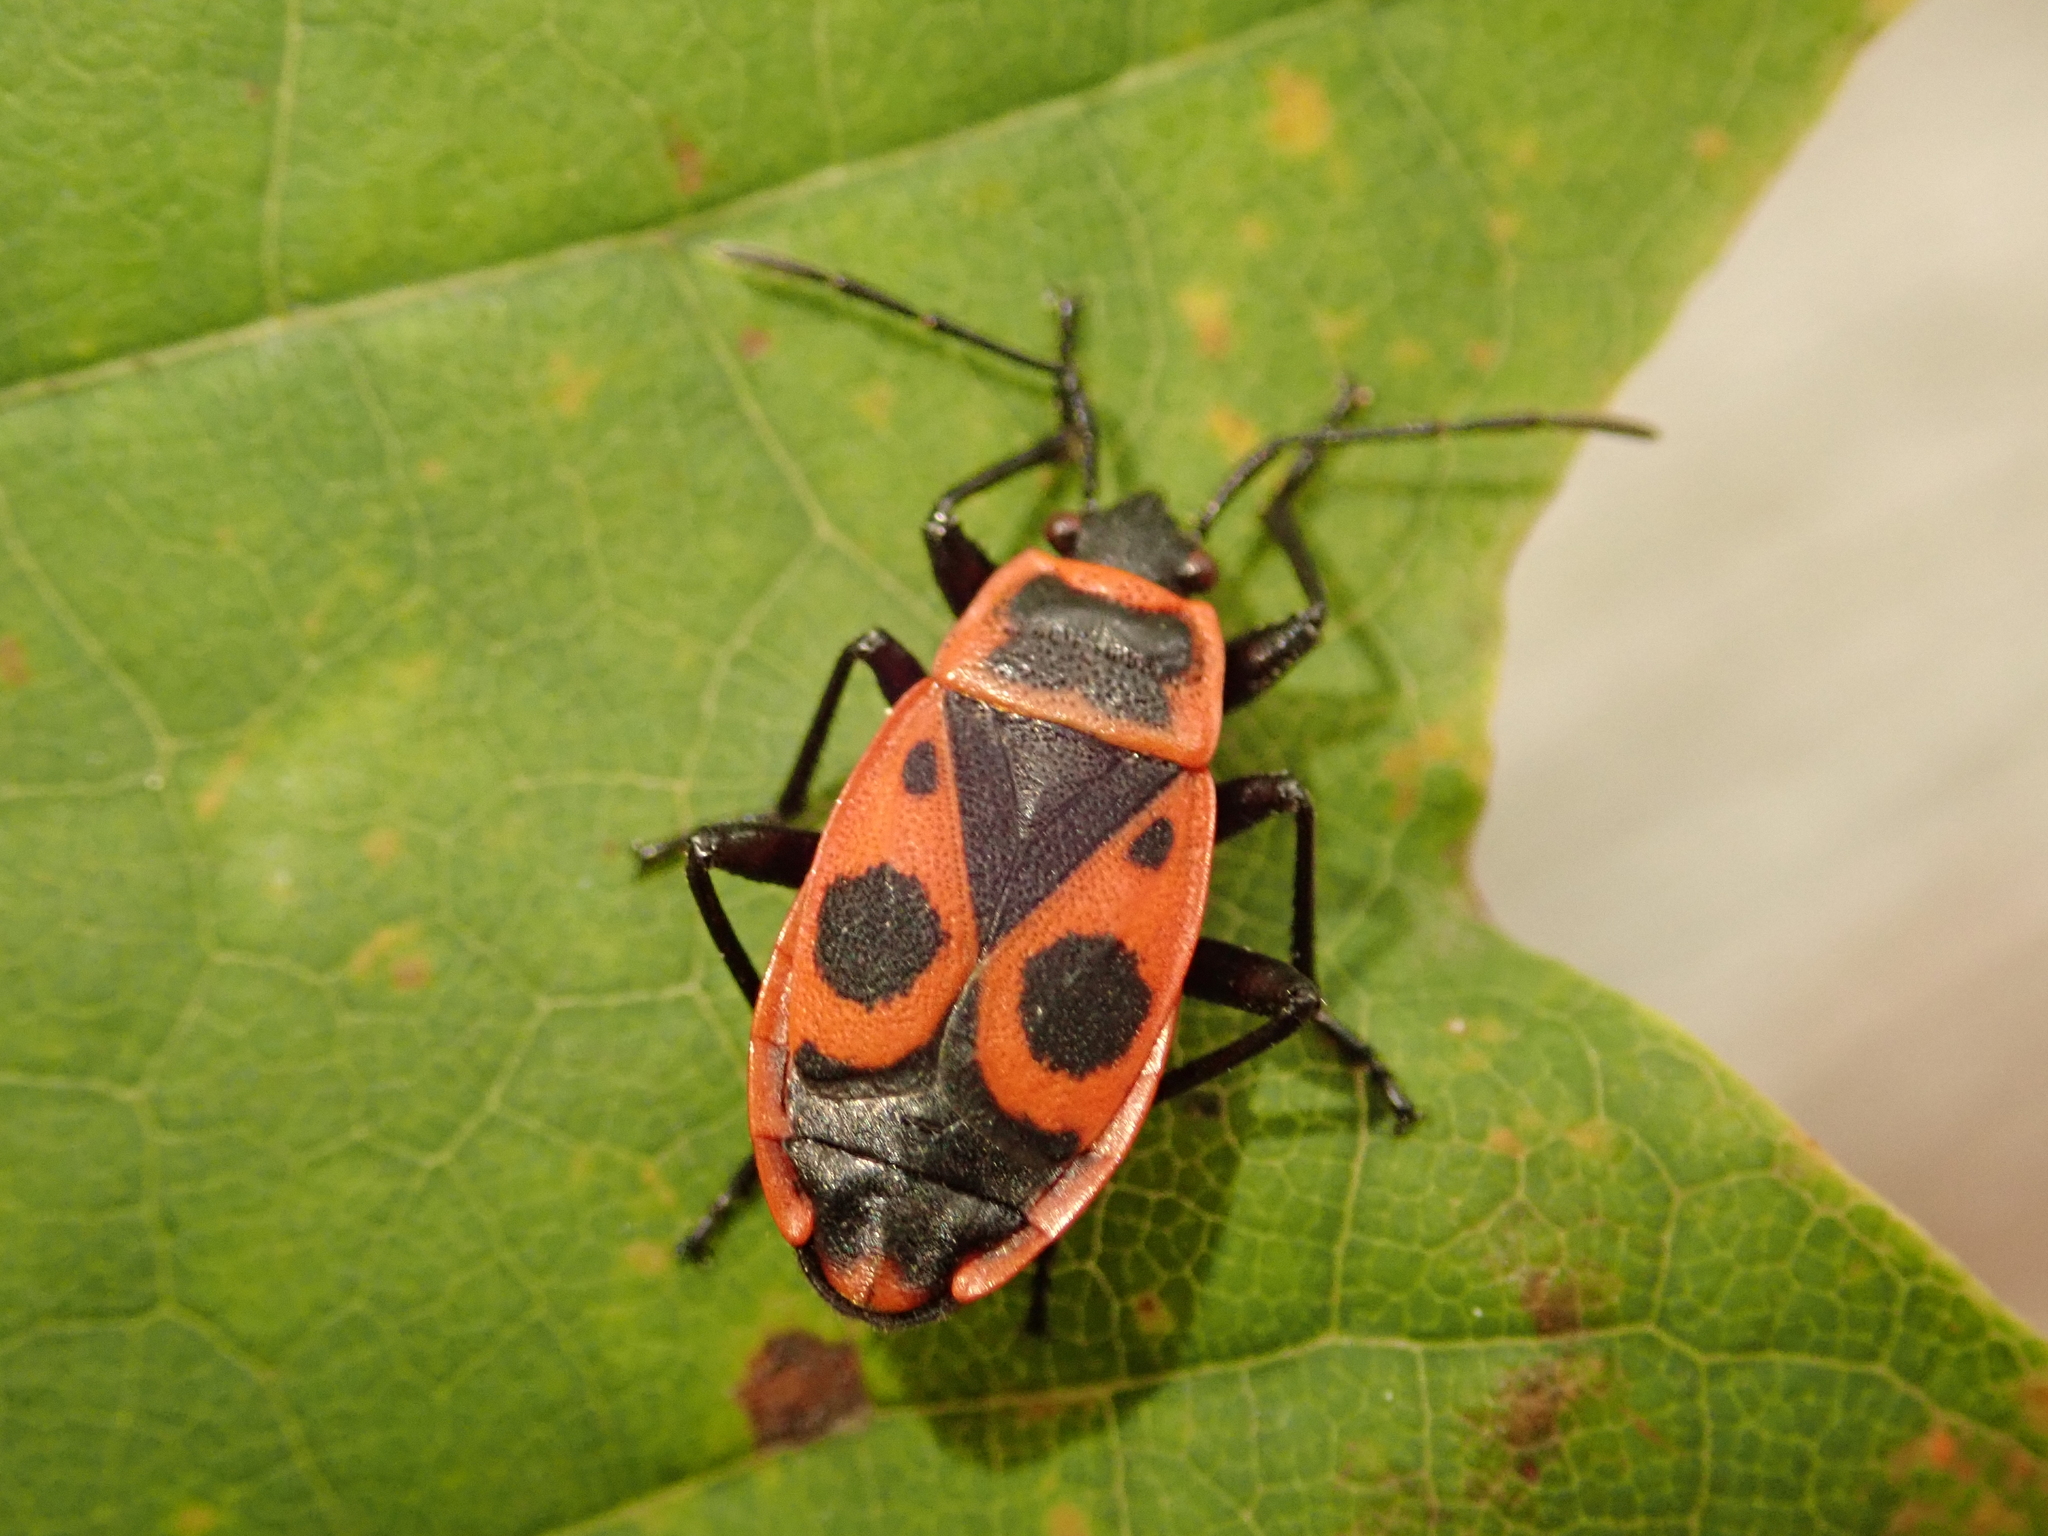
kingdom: Animalia
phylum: Arthropoda
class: Insecta
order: Hemiptera
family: Pyrrhocoridae
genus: Pyrrhocoris
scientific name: Pyrrhocoris apterus
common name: Firebug
